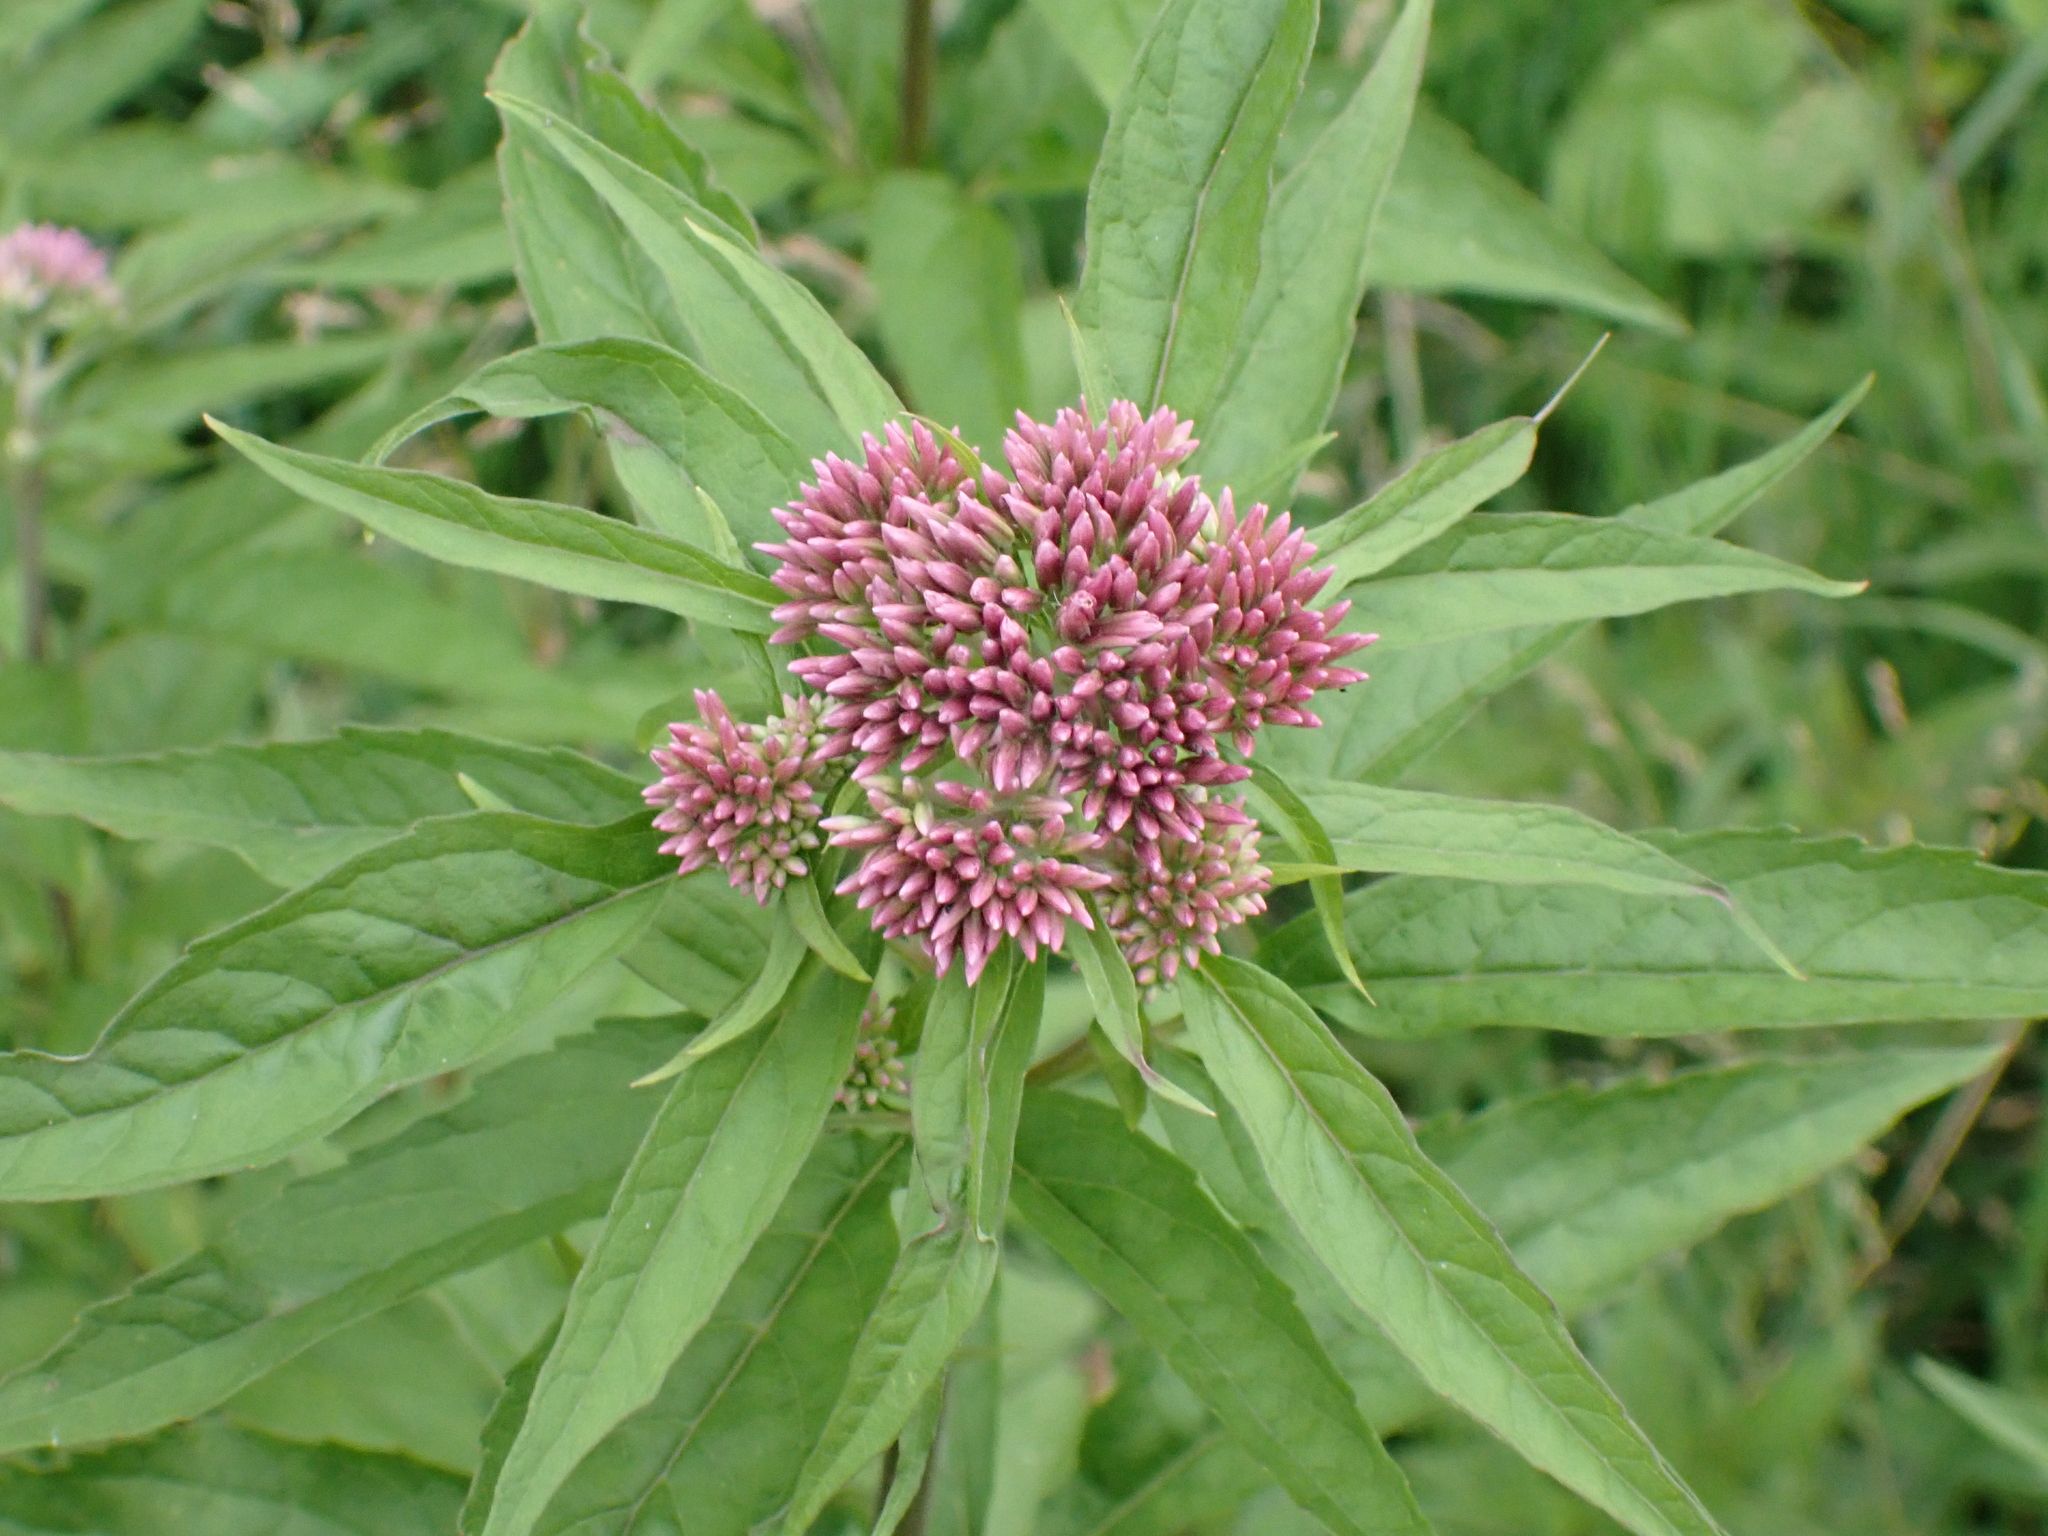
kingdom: Plantae
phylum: Tracheophyta
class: Magnoliopsida
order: Asterales
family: Asteraceae
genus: Eupatorium
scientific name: Eupatorium cannabinum
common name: Hemp-agrimony
